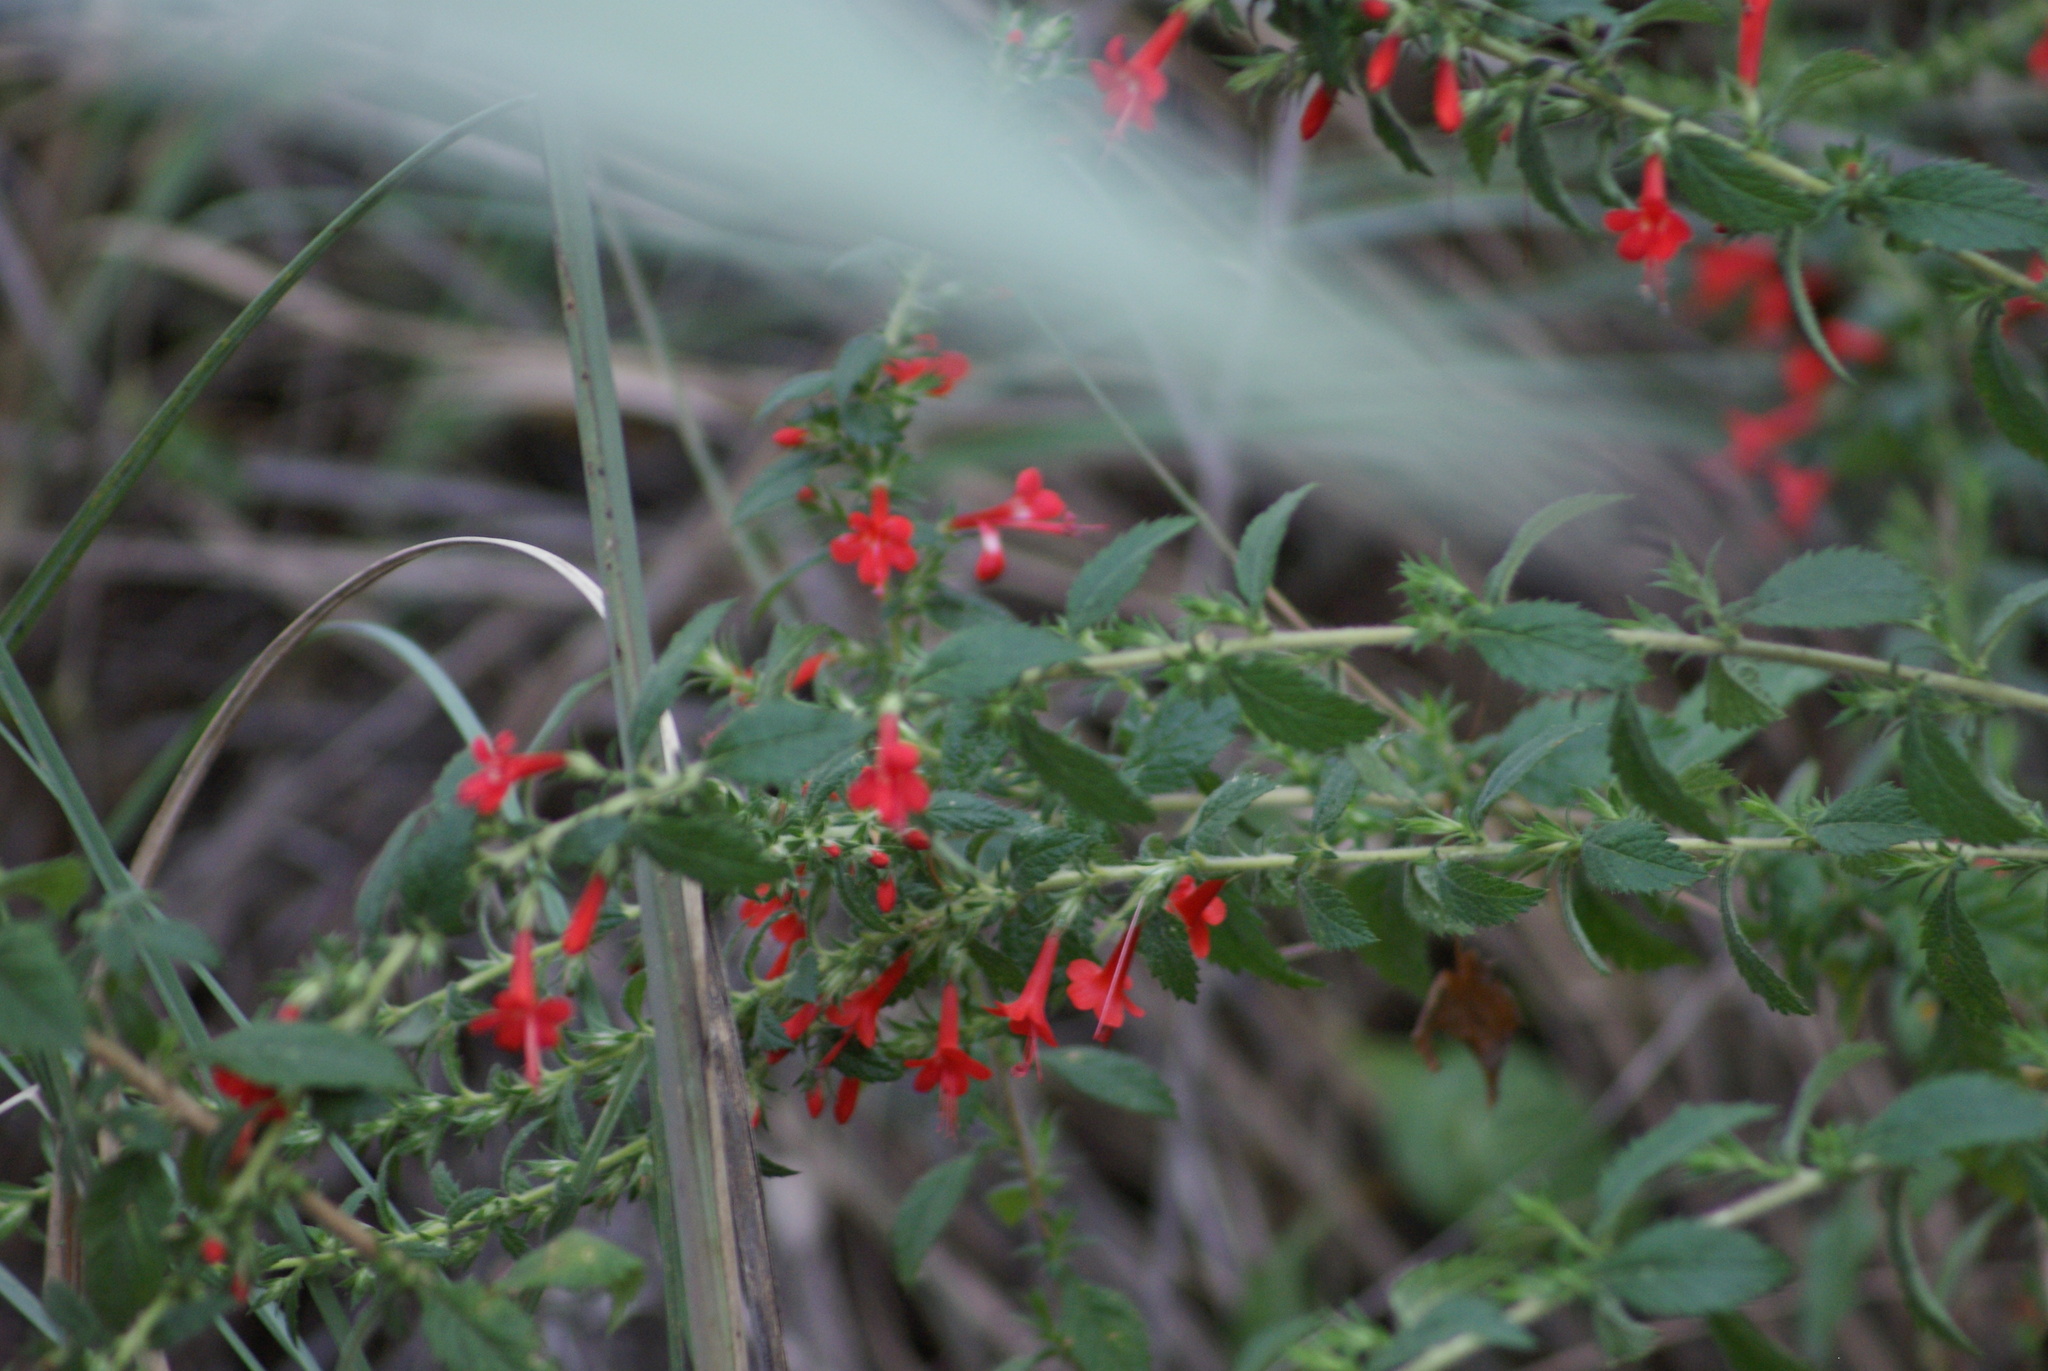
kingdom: Plantae
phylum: Tracheophyta
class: Magnoliopsida
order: Ericales
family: Polemoniaceae
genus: Loeselia
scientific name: Loeselia mexicana
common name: Mexican false calico
